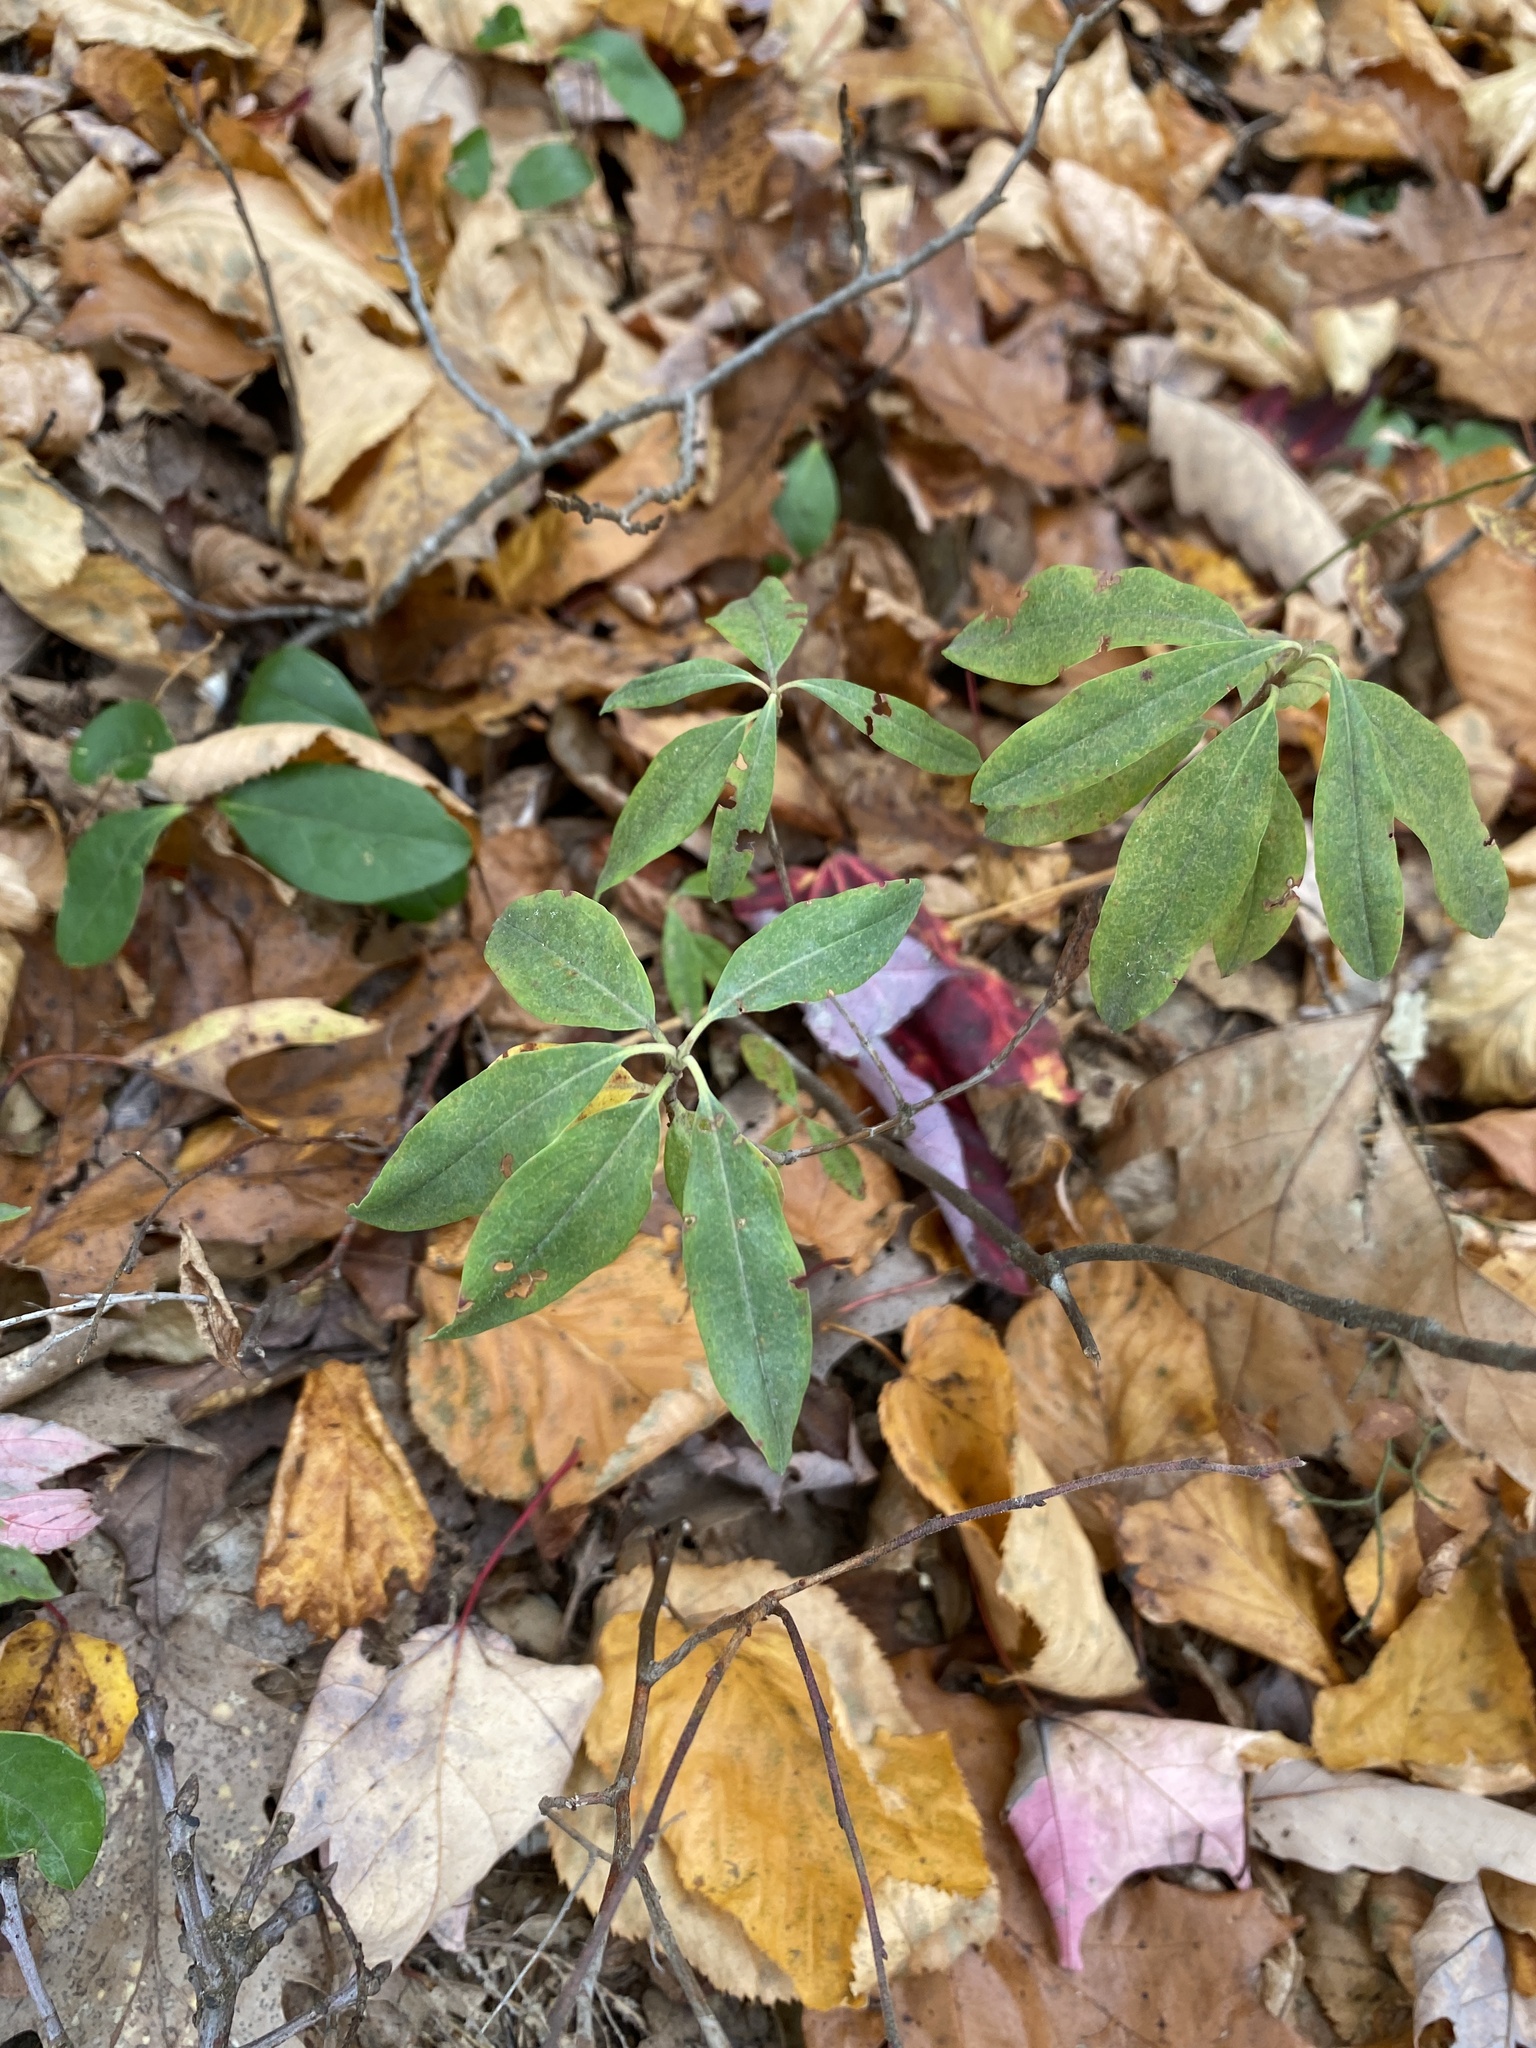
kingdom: Plantae
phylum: Tracheophyta
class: Magnoliopsida
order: Ericales
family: Ericaceae
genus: Kalmia
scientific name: Kalmia angustifolia
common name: Sheep-laurel
